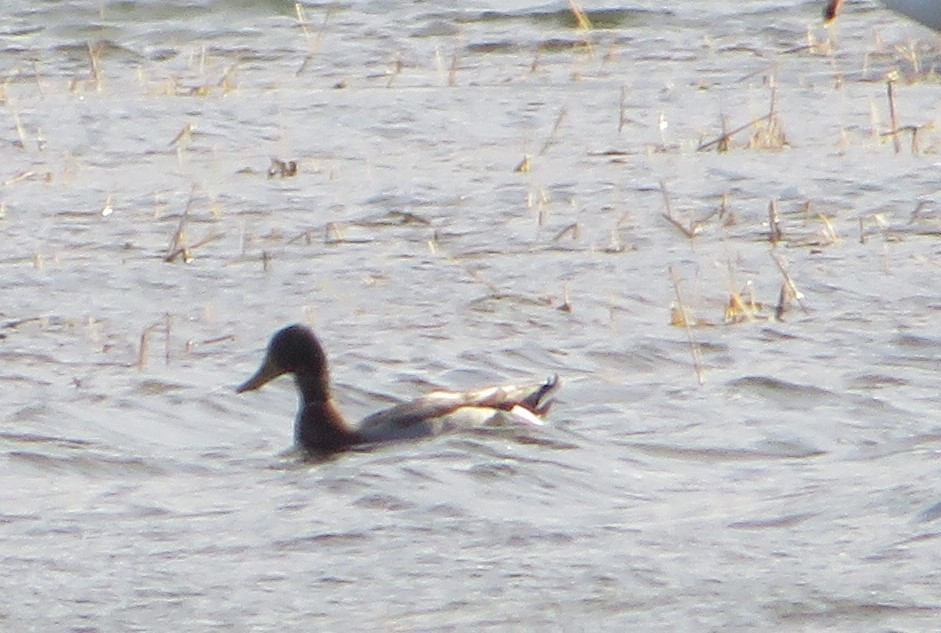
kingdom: Animalia
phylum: Chordata
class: Aves
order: Anseriformes
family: Anatidae
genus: Anas
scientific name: Anas platyrhynchos
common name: Mallard
